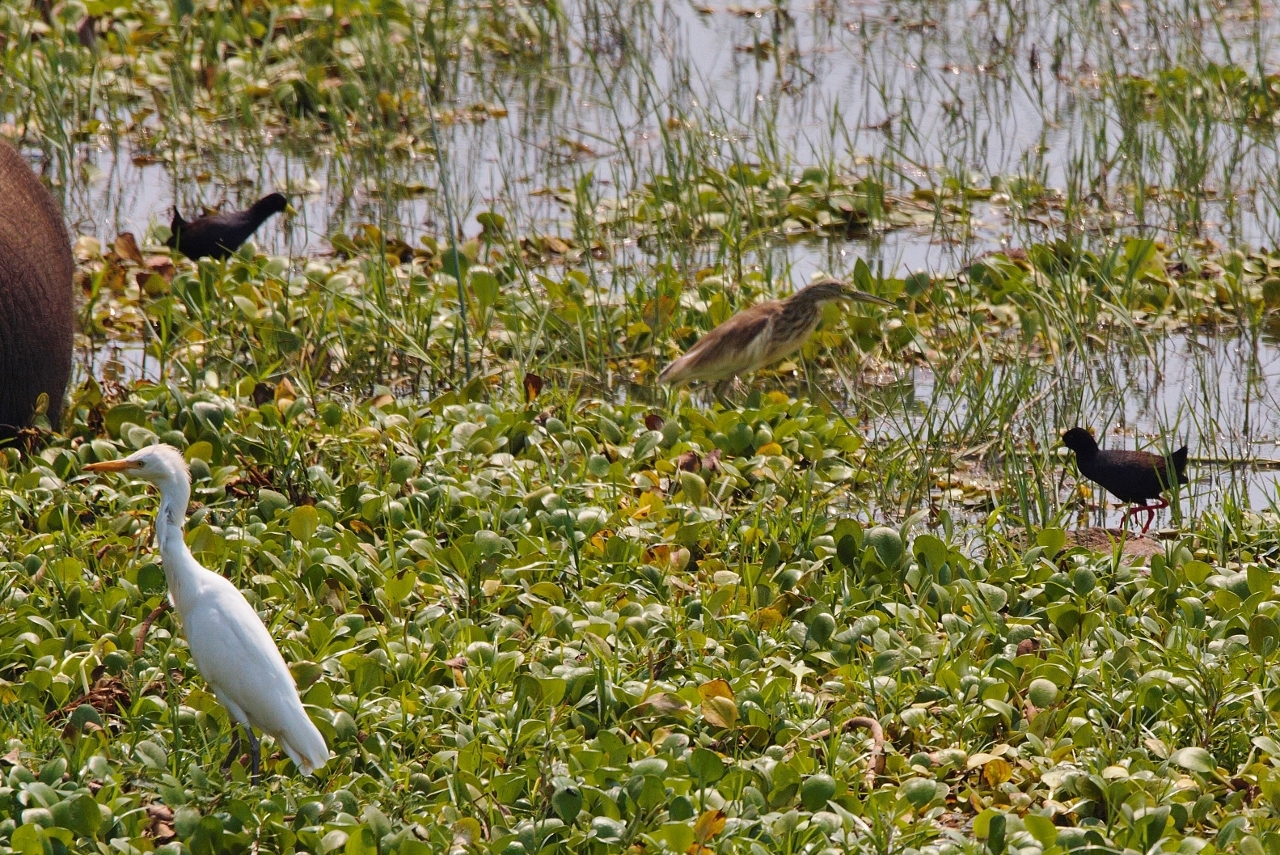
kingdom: Animalia
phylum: Chordata
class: Aves
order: Gruiformes
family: Rallidae
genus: Amaurornis
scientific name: Amaurornis flavirostra
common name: Black crake
